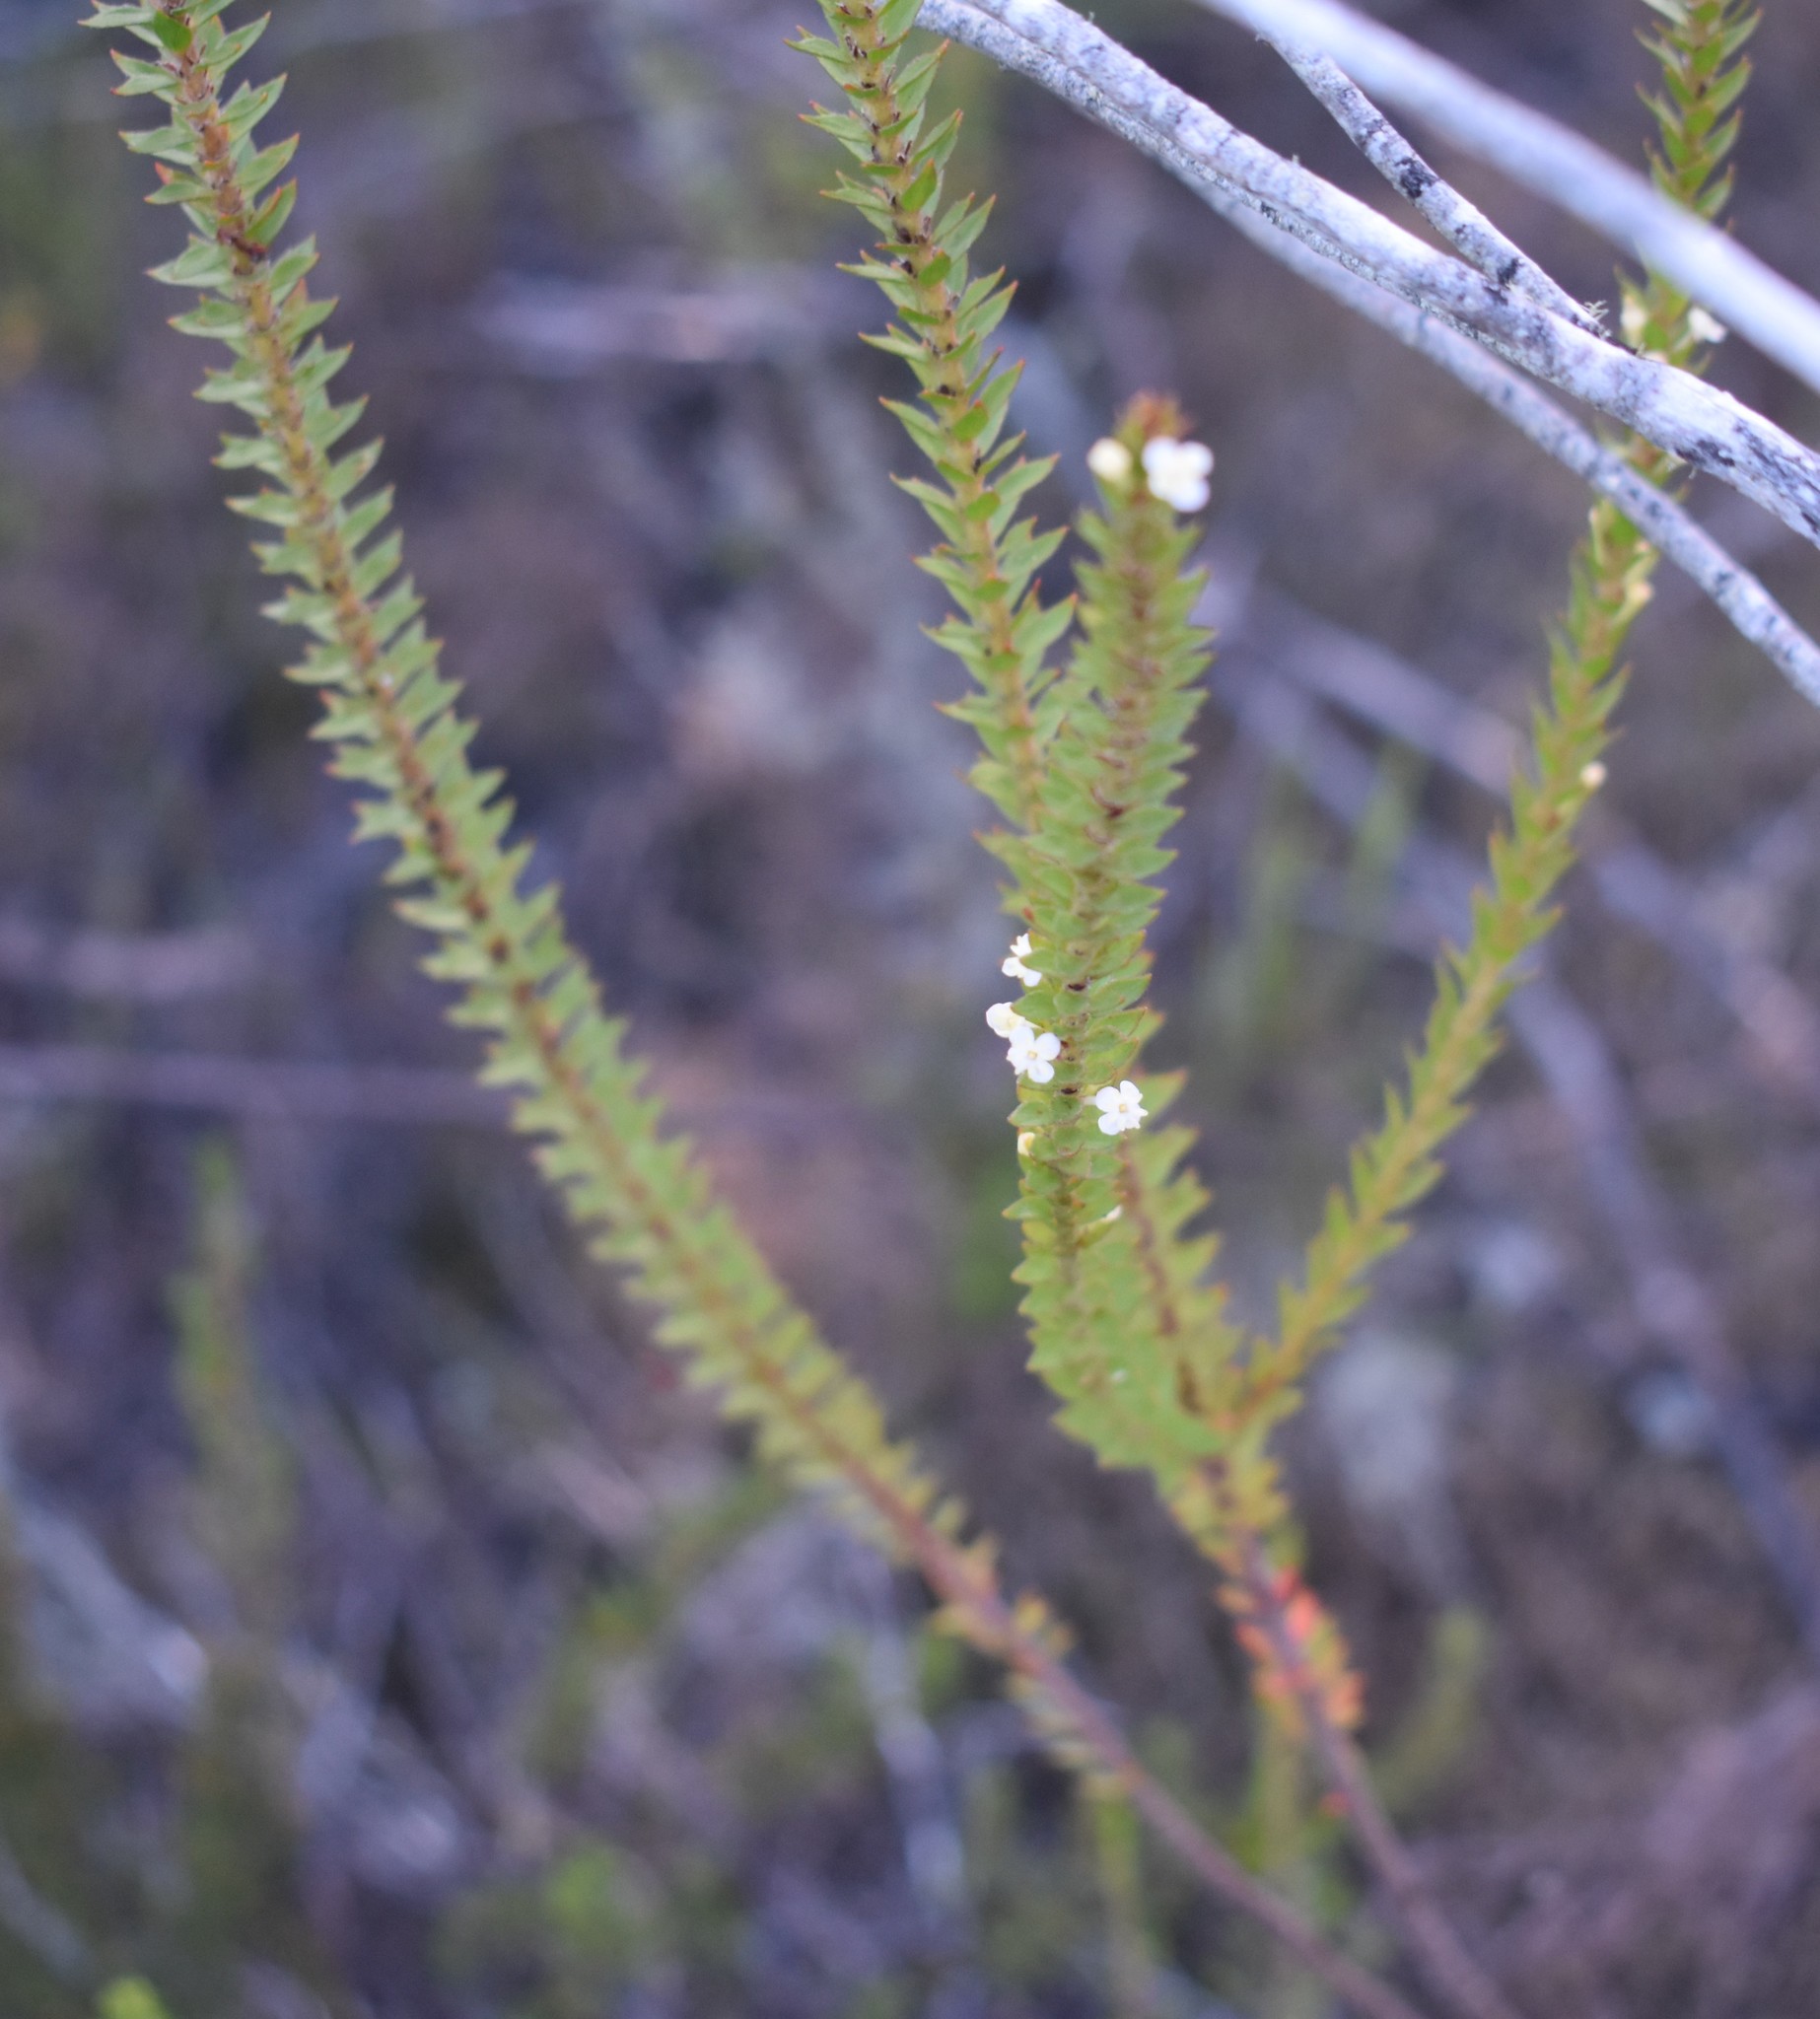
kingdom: Plantae
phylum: Tracheophyta
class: Magnoliopsida
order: Malvales
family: Thymelaeaceae
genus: Struthiola
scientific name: Struthiola hirsuta
